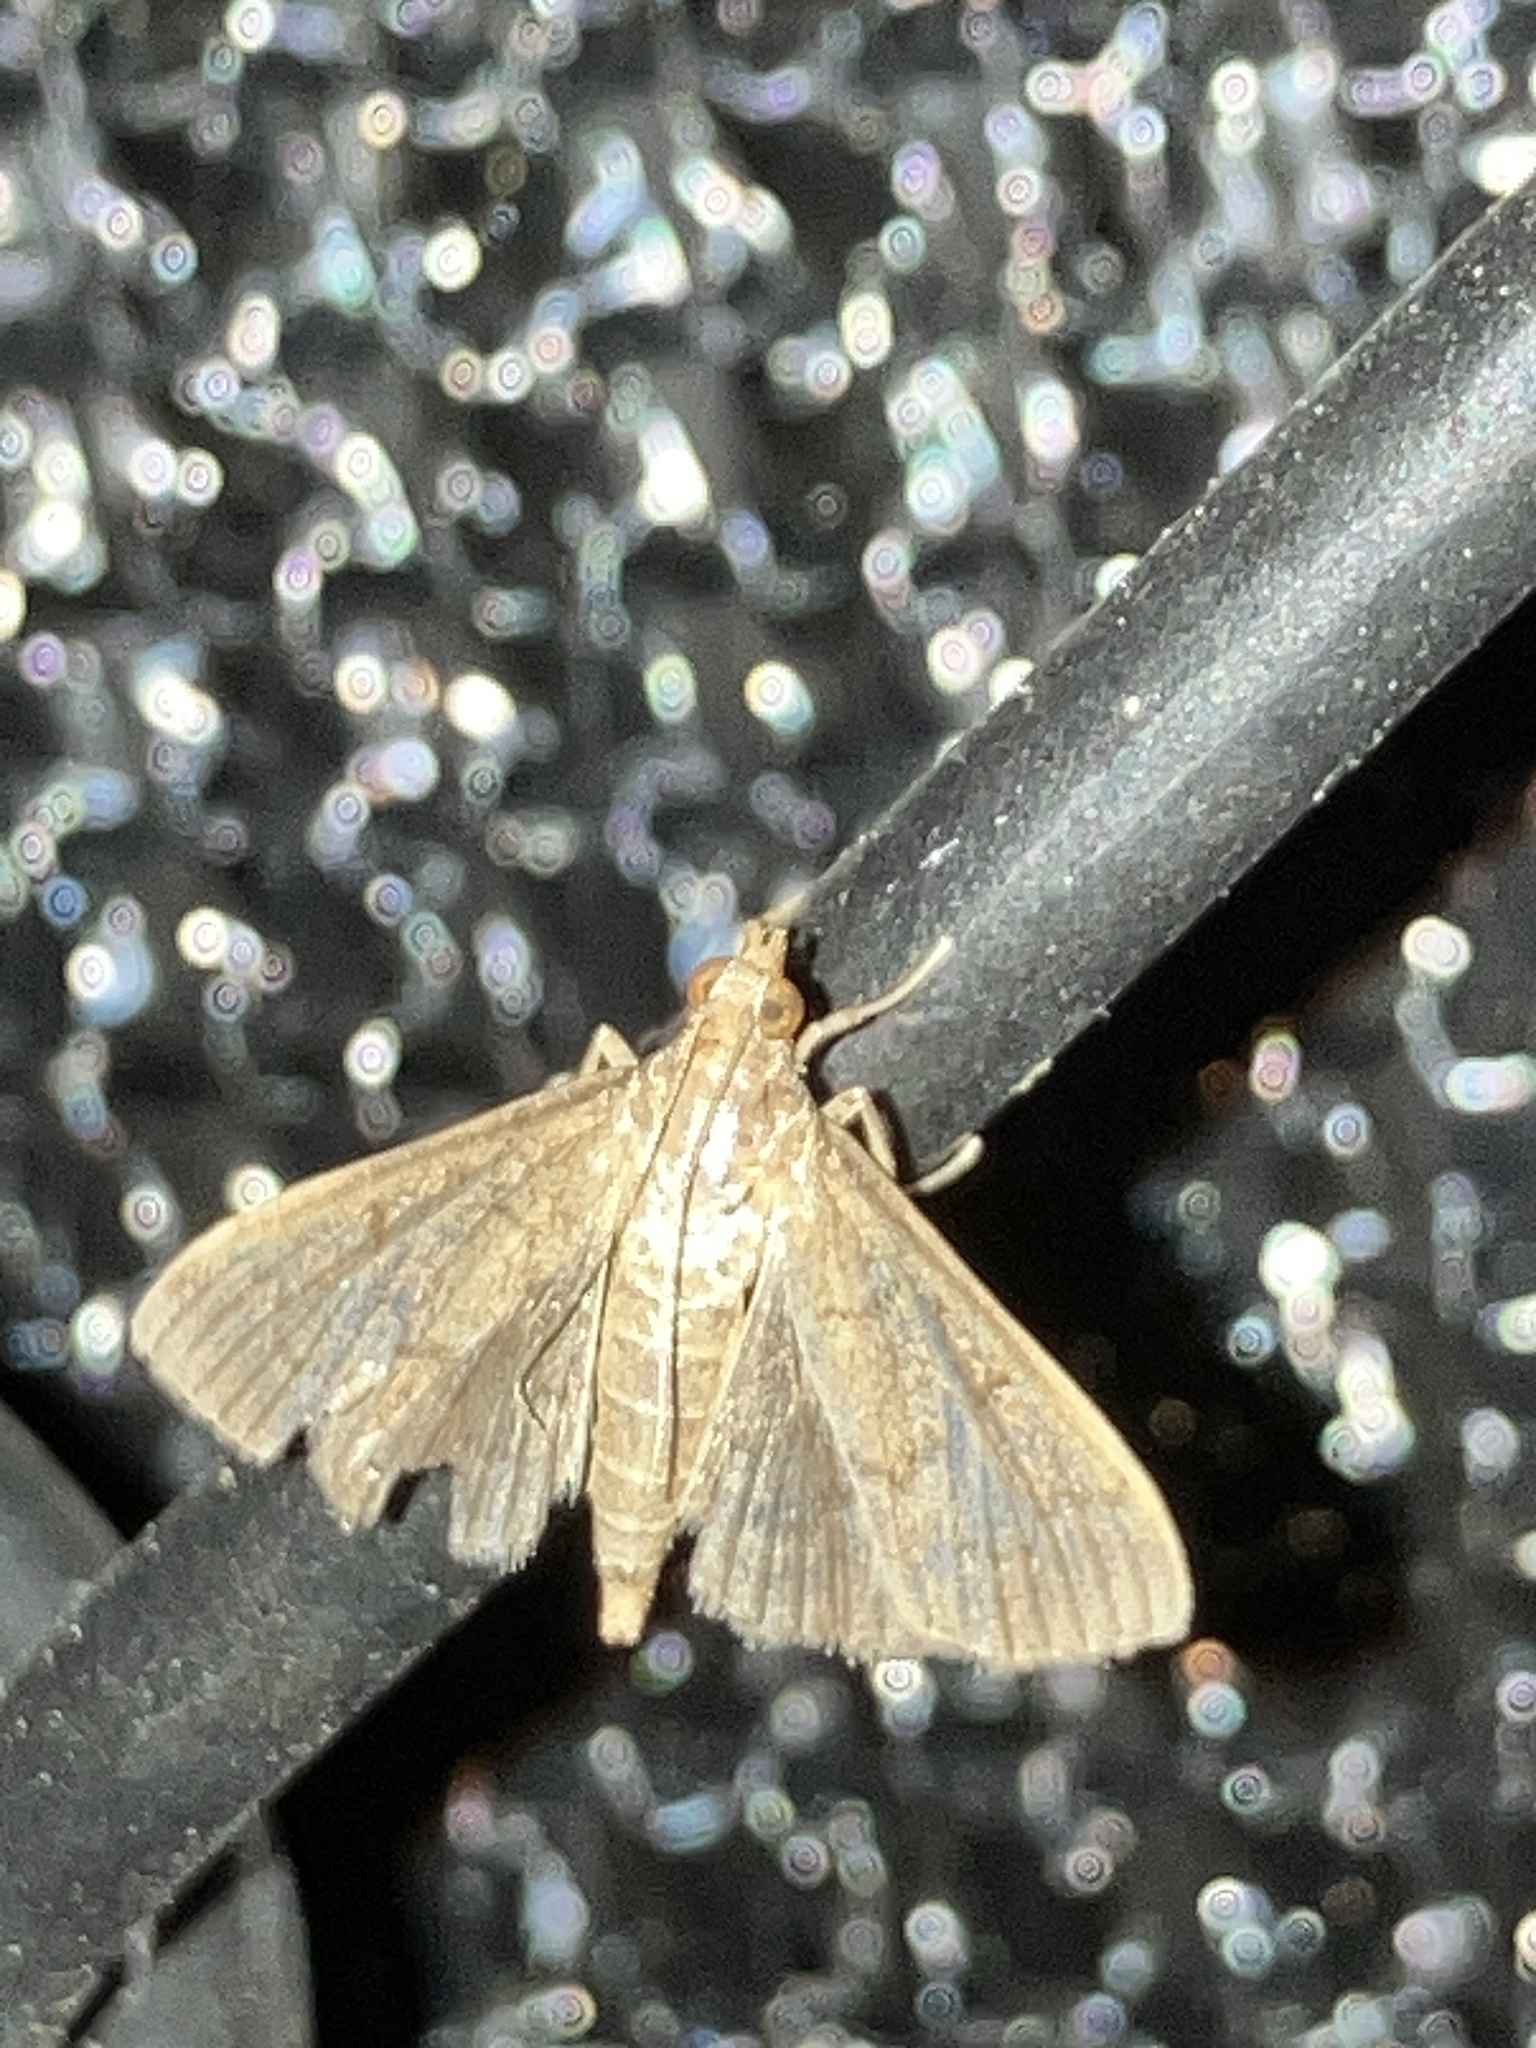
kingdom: Animalia
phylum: Arthropoda
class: Insecta
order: Lepidoptera
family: Crambidae
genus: Herpetogramma
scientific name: Herpetogramma phaeopteralis
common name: Dusky herpetogramma moth
